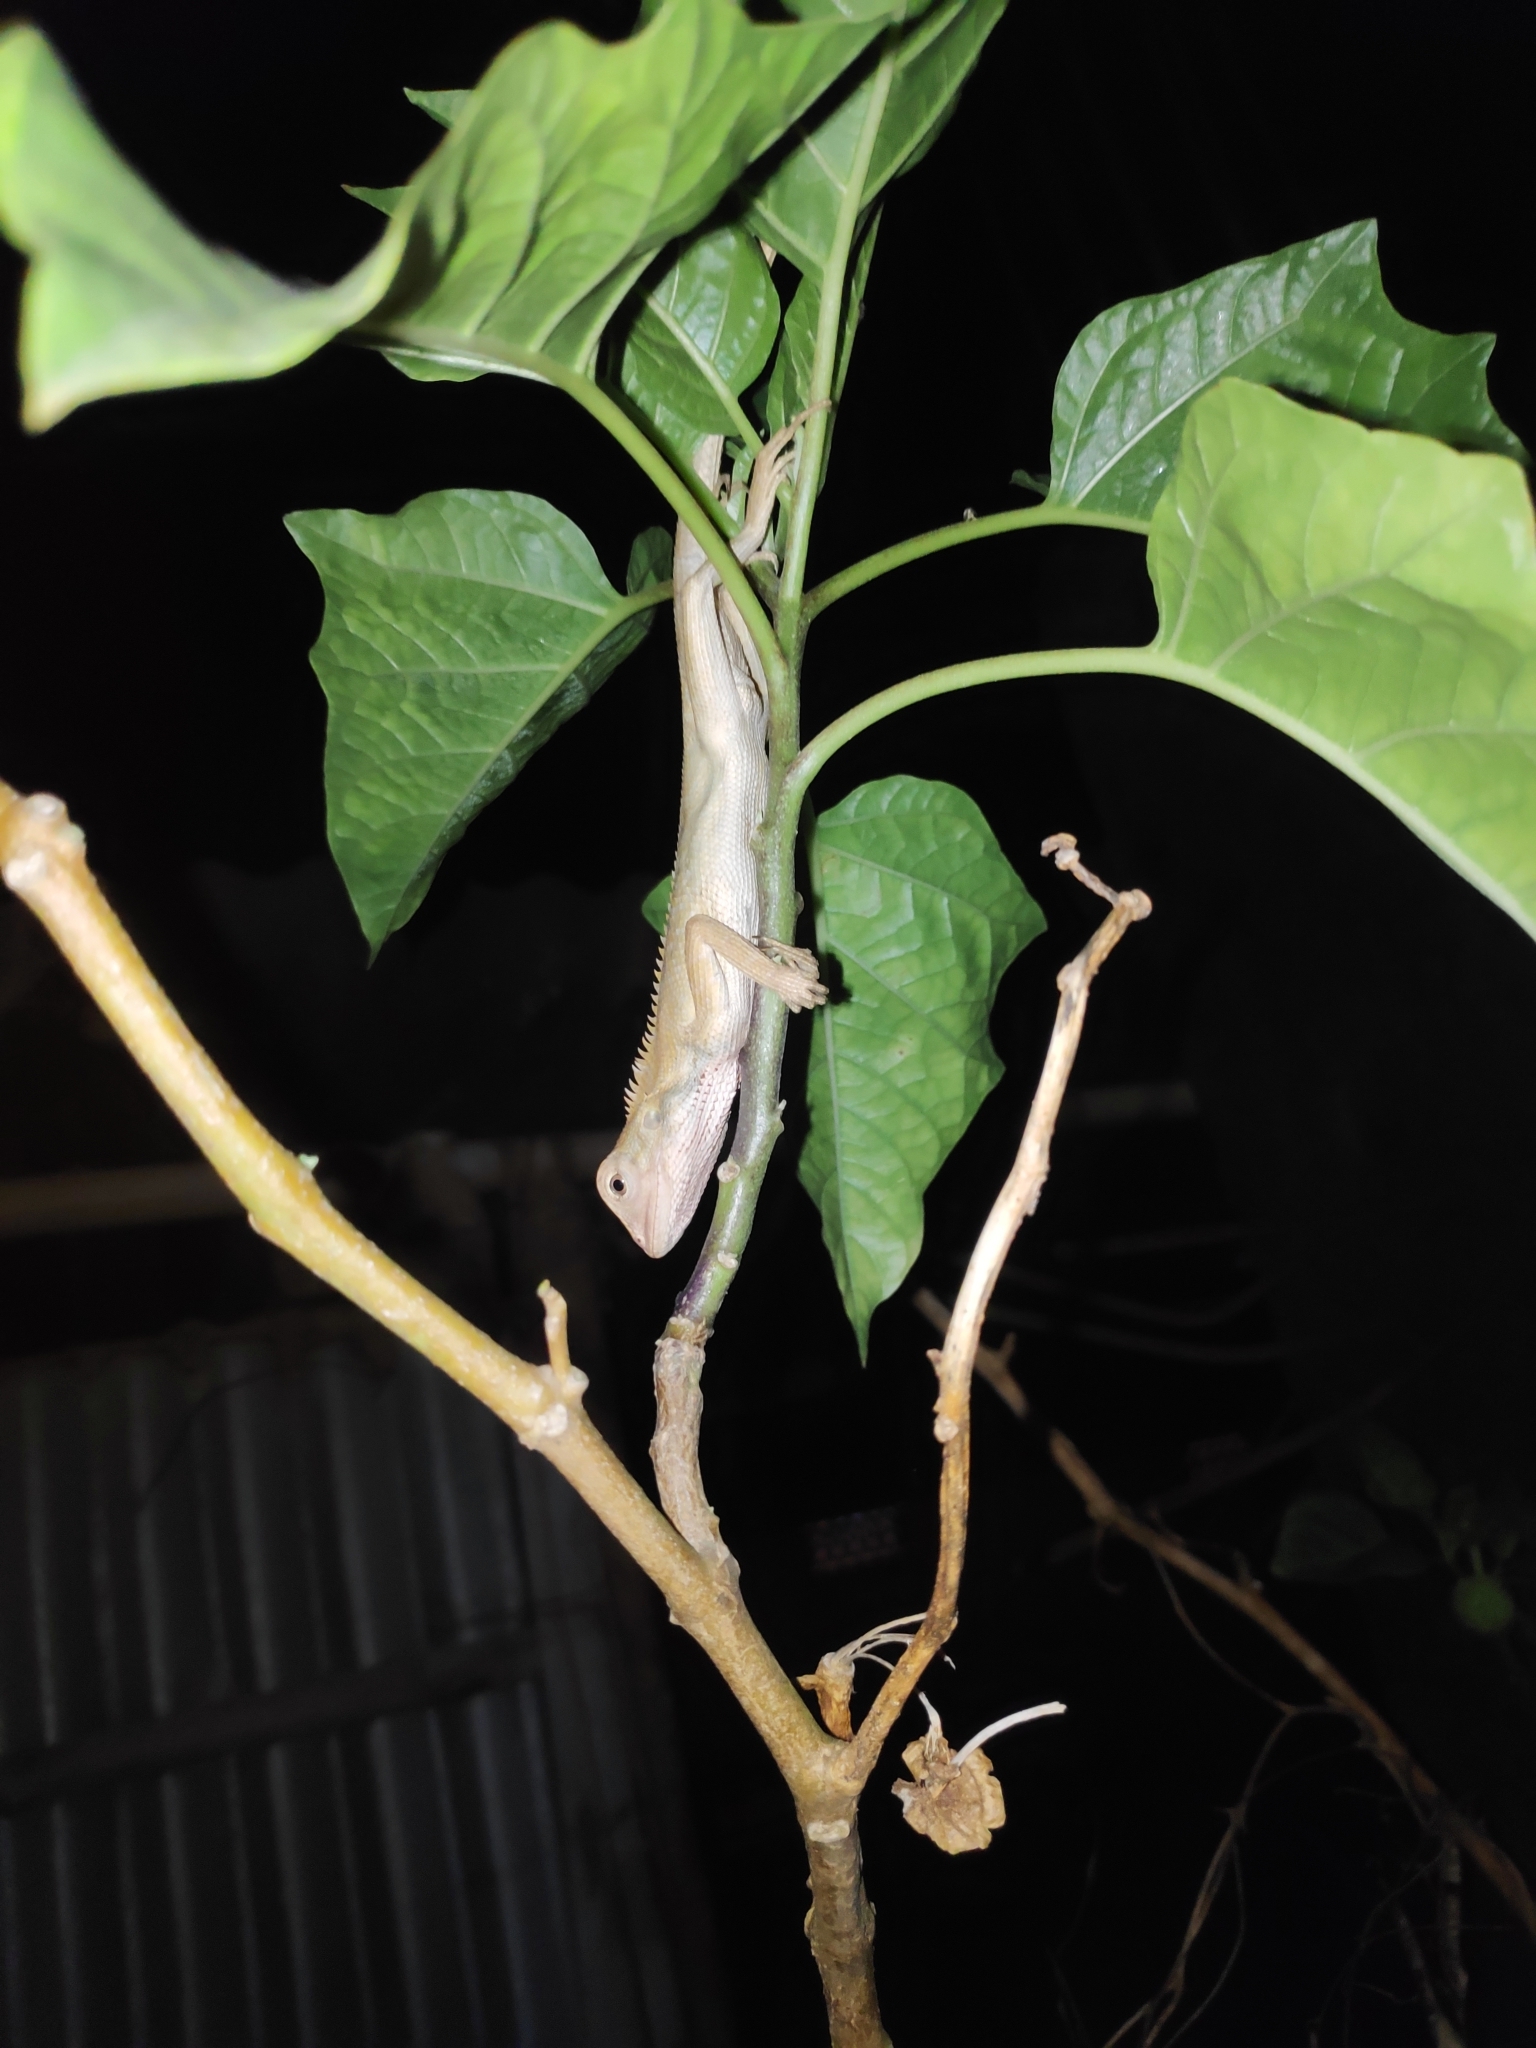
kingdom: Animalia
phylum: Chordata
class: Squamata
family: Agamidae
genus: Calotes
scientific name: Calotes versicolor
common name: Oriental garden lizard
